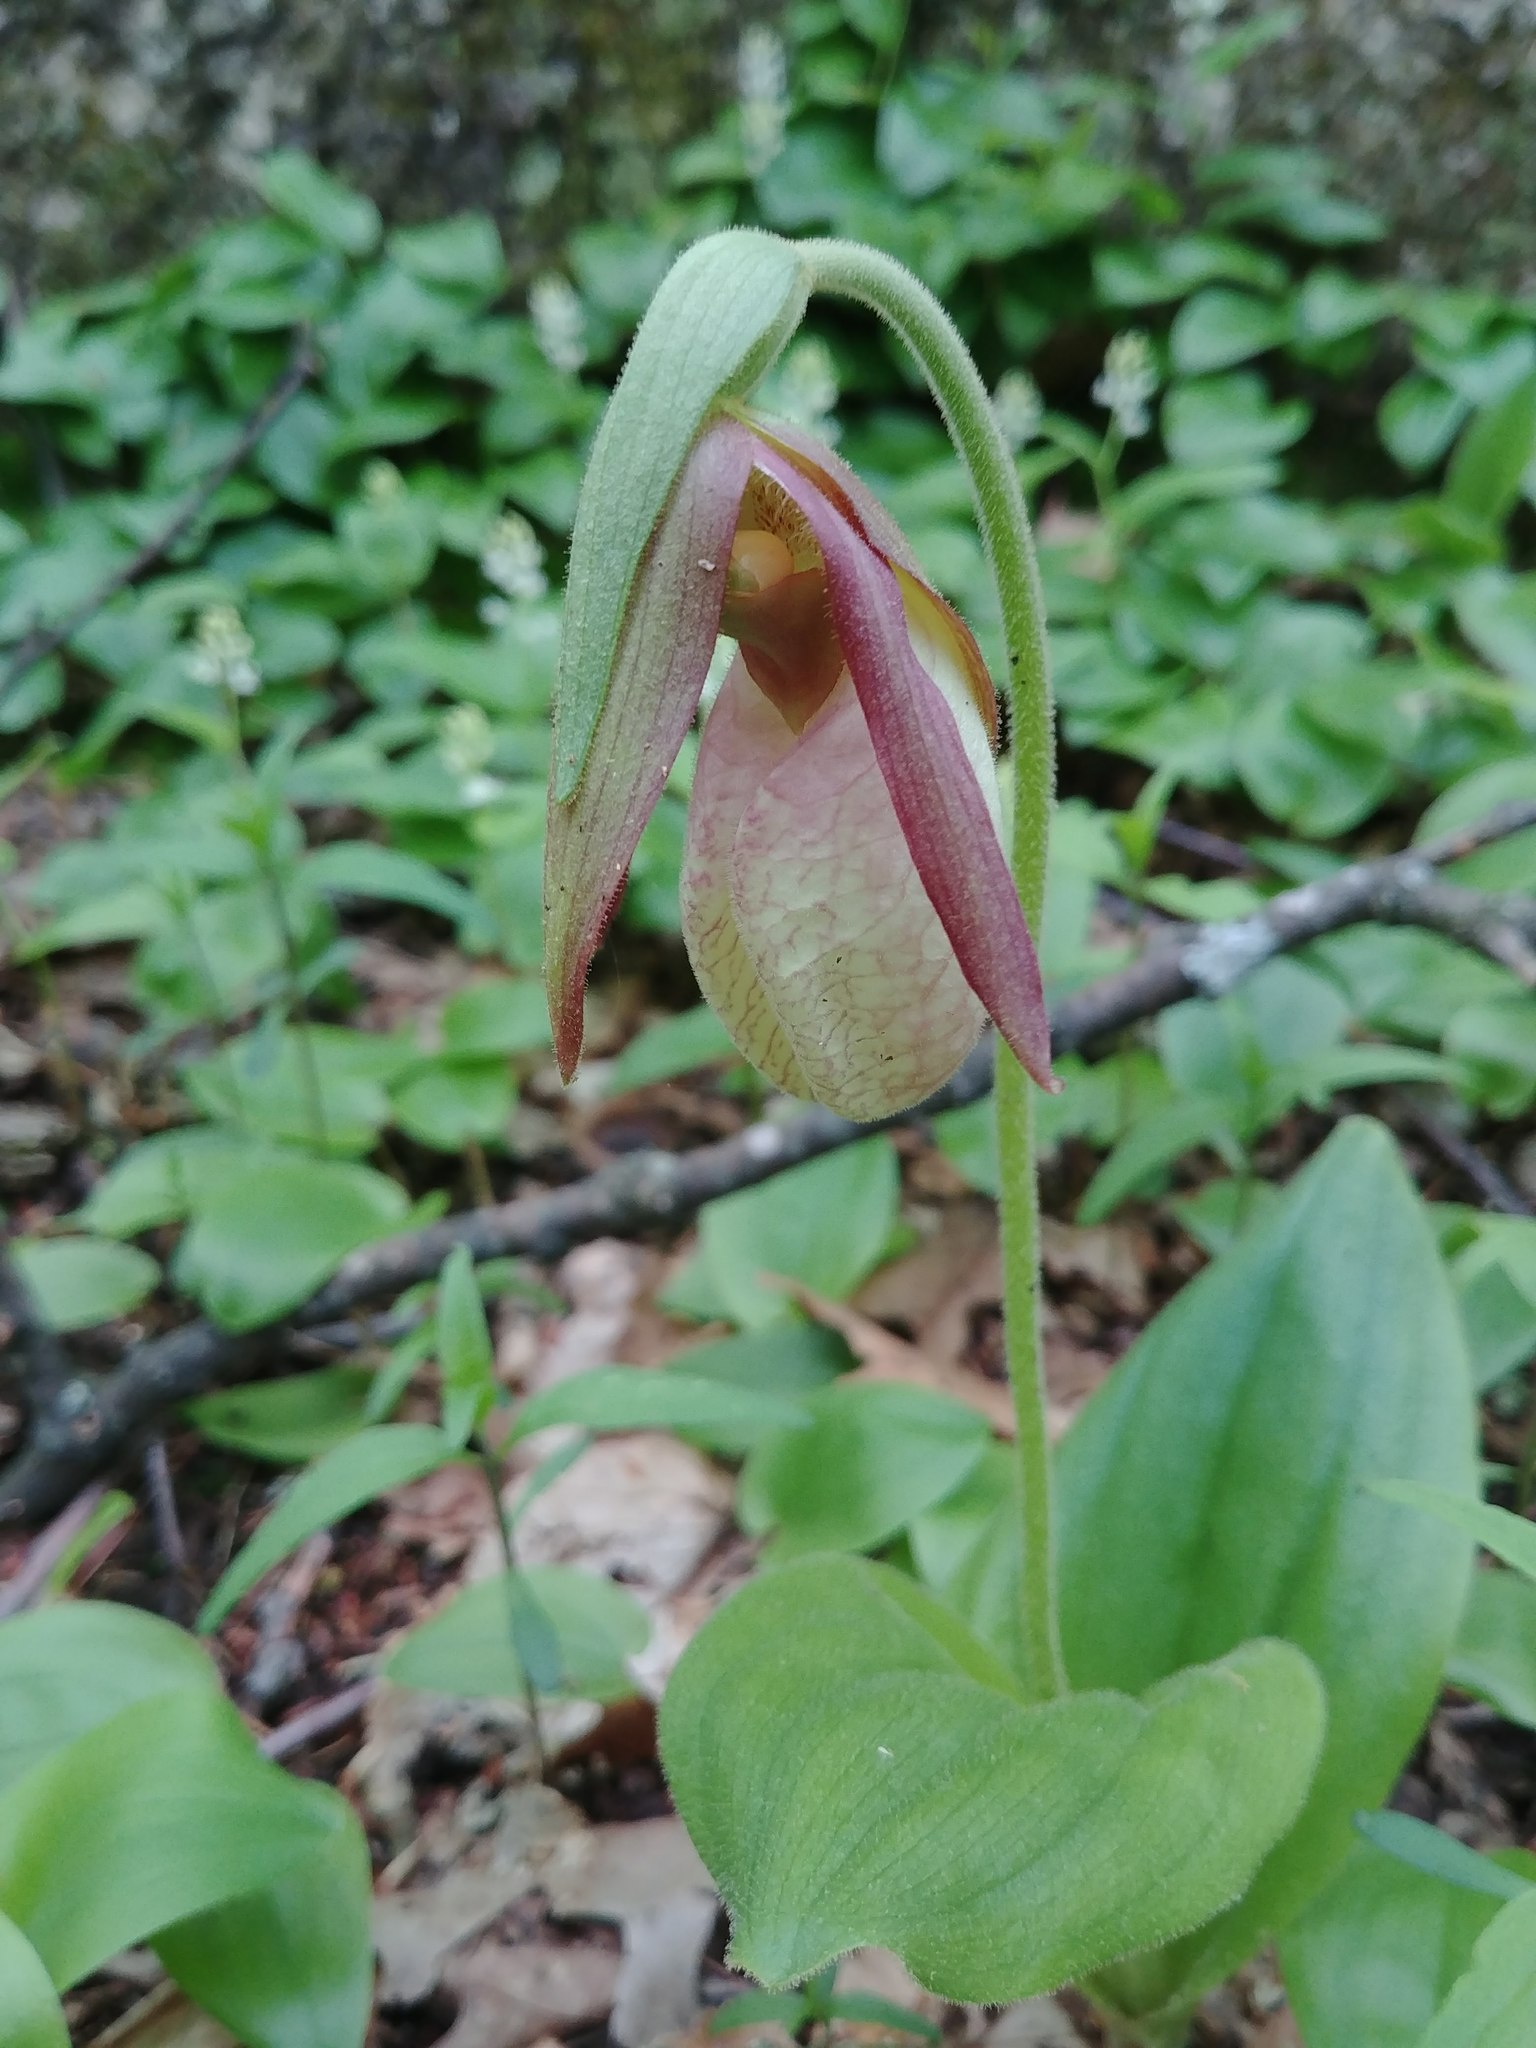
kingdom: Plantae
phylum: Tracheophyta
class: Liliopsida
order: Asparagales
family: Orchidaceae
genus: Cypripedium
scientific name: Cypripedium acaule
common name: Pink lady's-slipper
